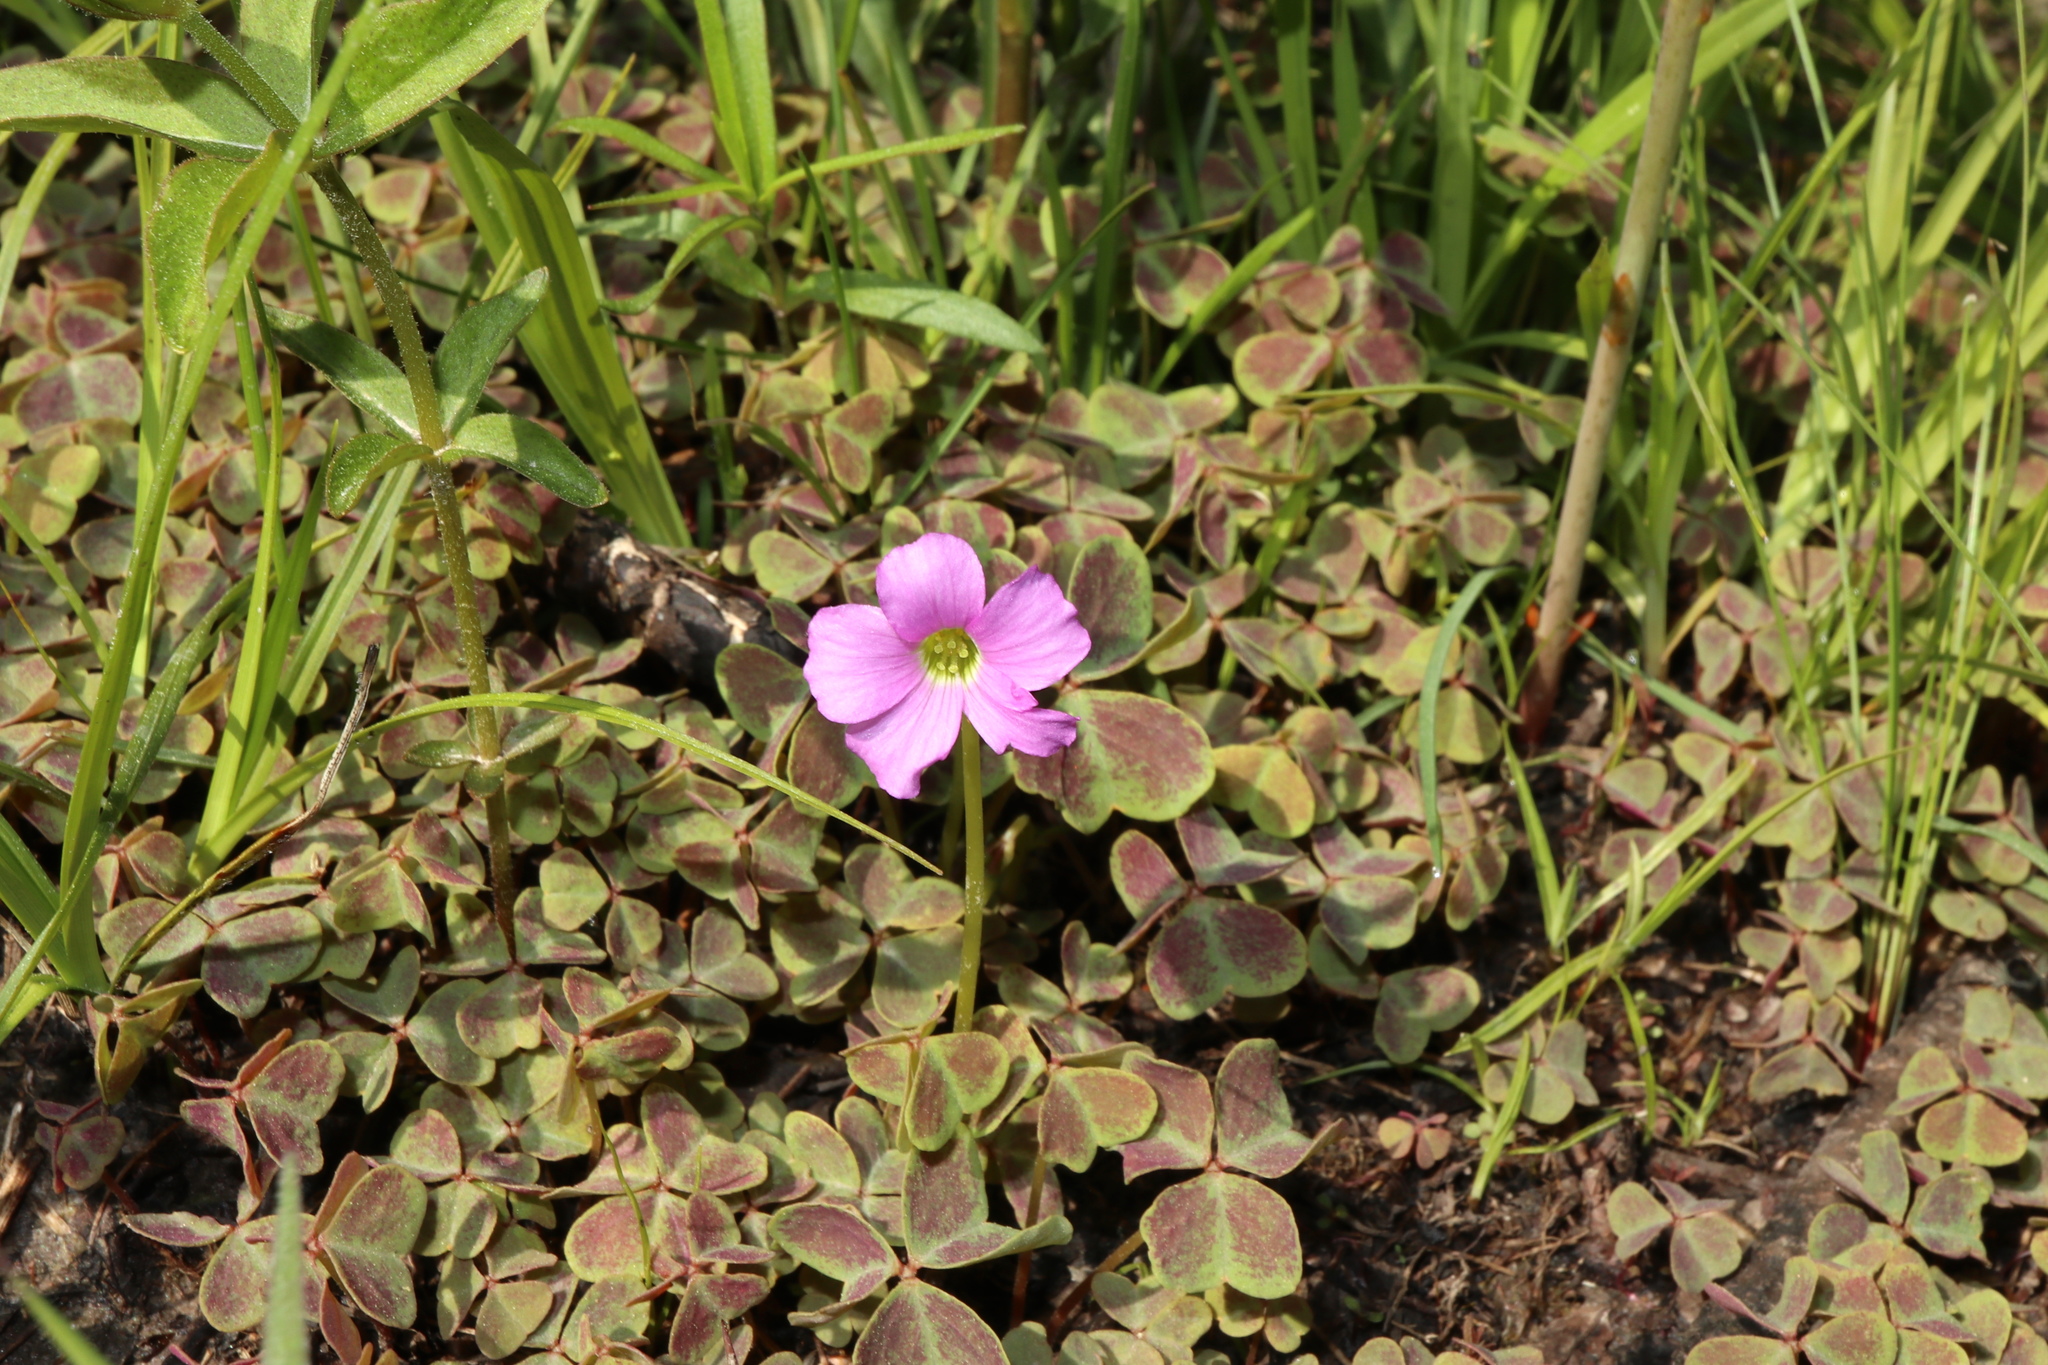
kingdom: Plantae
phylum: Tracheophyta
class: Magnoliopsida
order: Oxalidales
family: Oxalidaceae
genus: Oxalis
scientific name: Oxalis violacea
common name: Violet wood-sorrel
